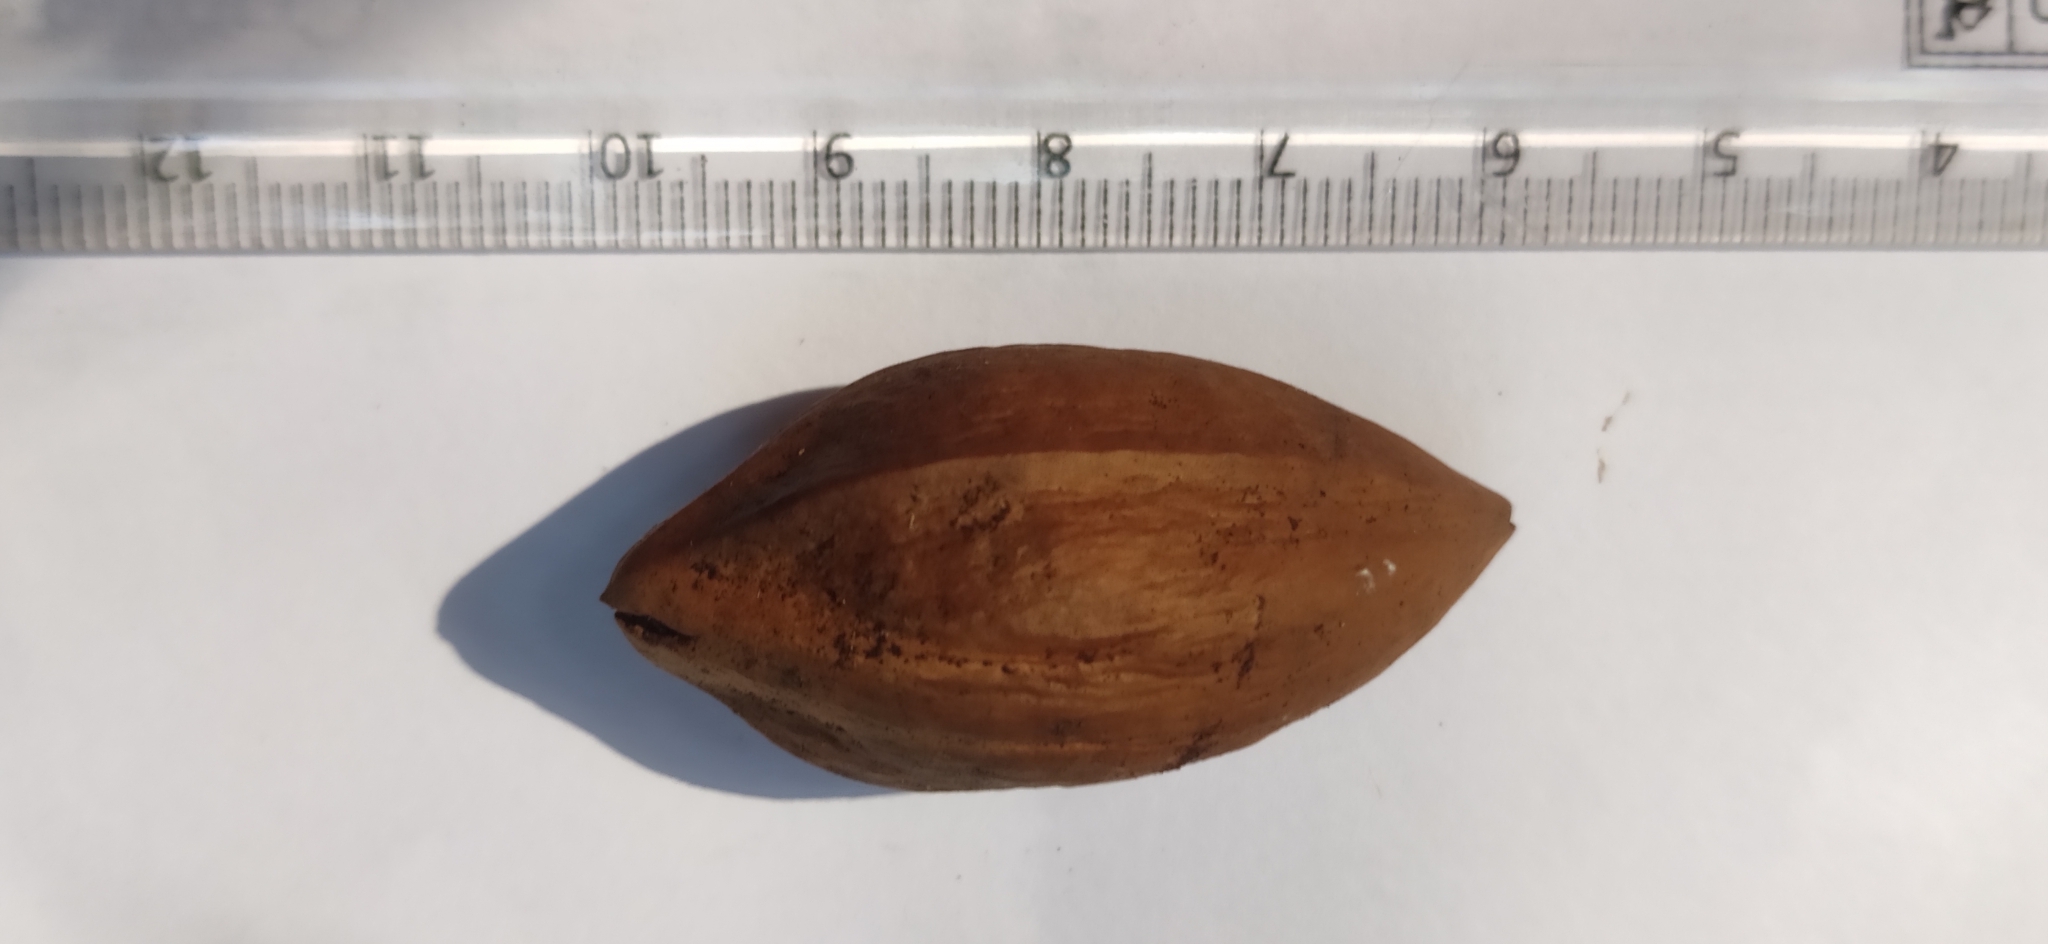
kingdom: Plantae
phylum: Tracheophyta
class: Magnoliopsida
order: Sapindales
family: Burseraceae
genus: Canarium
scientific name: Canarium strictum
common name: Indian white-mahogany
